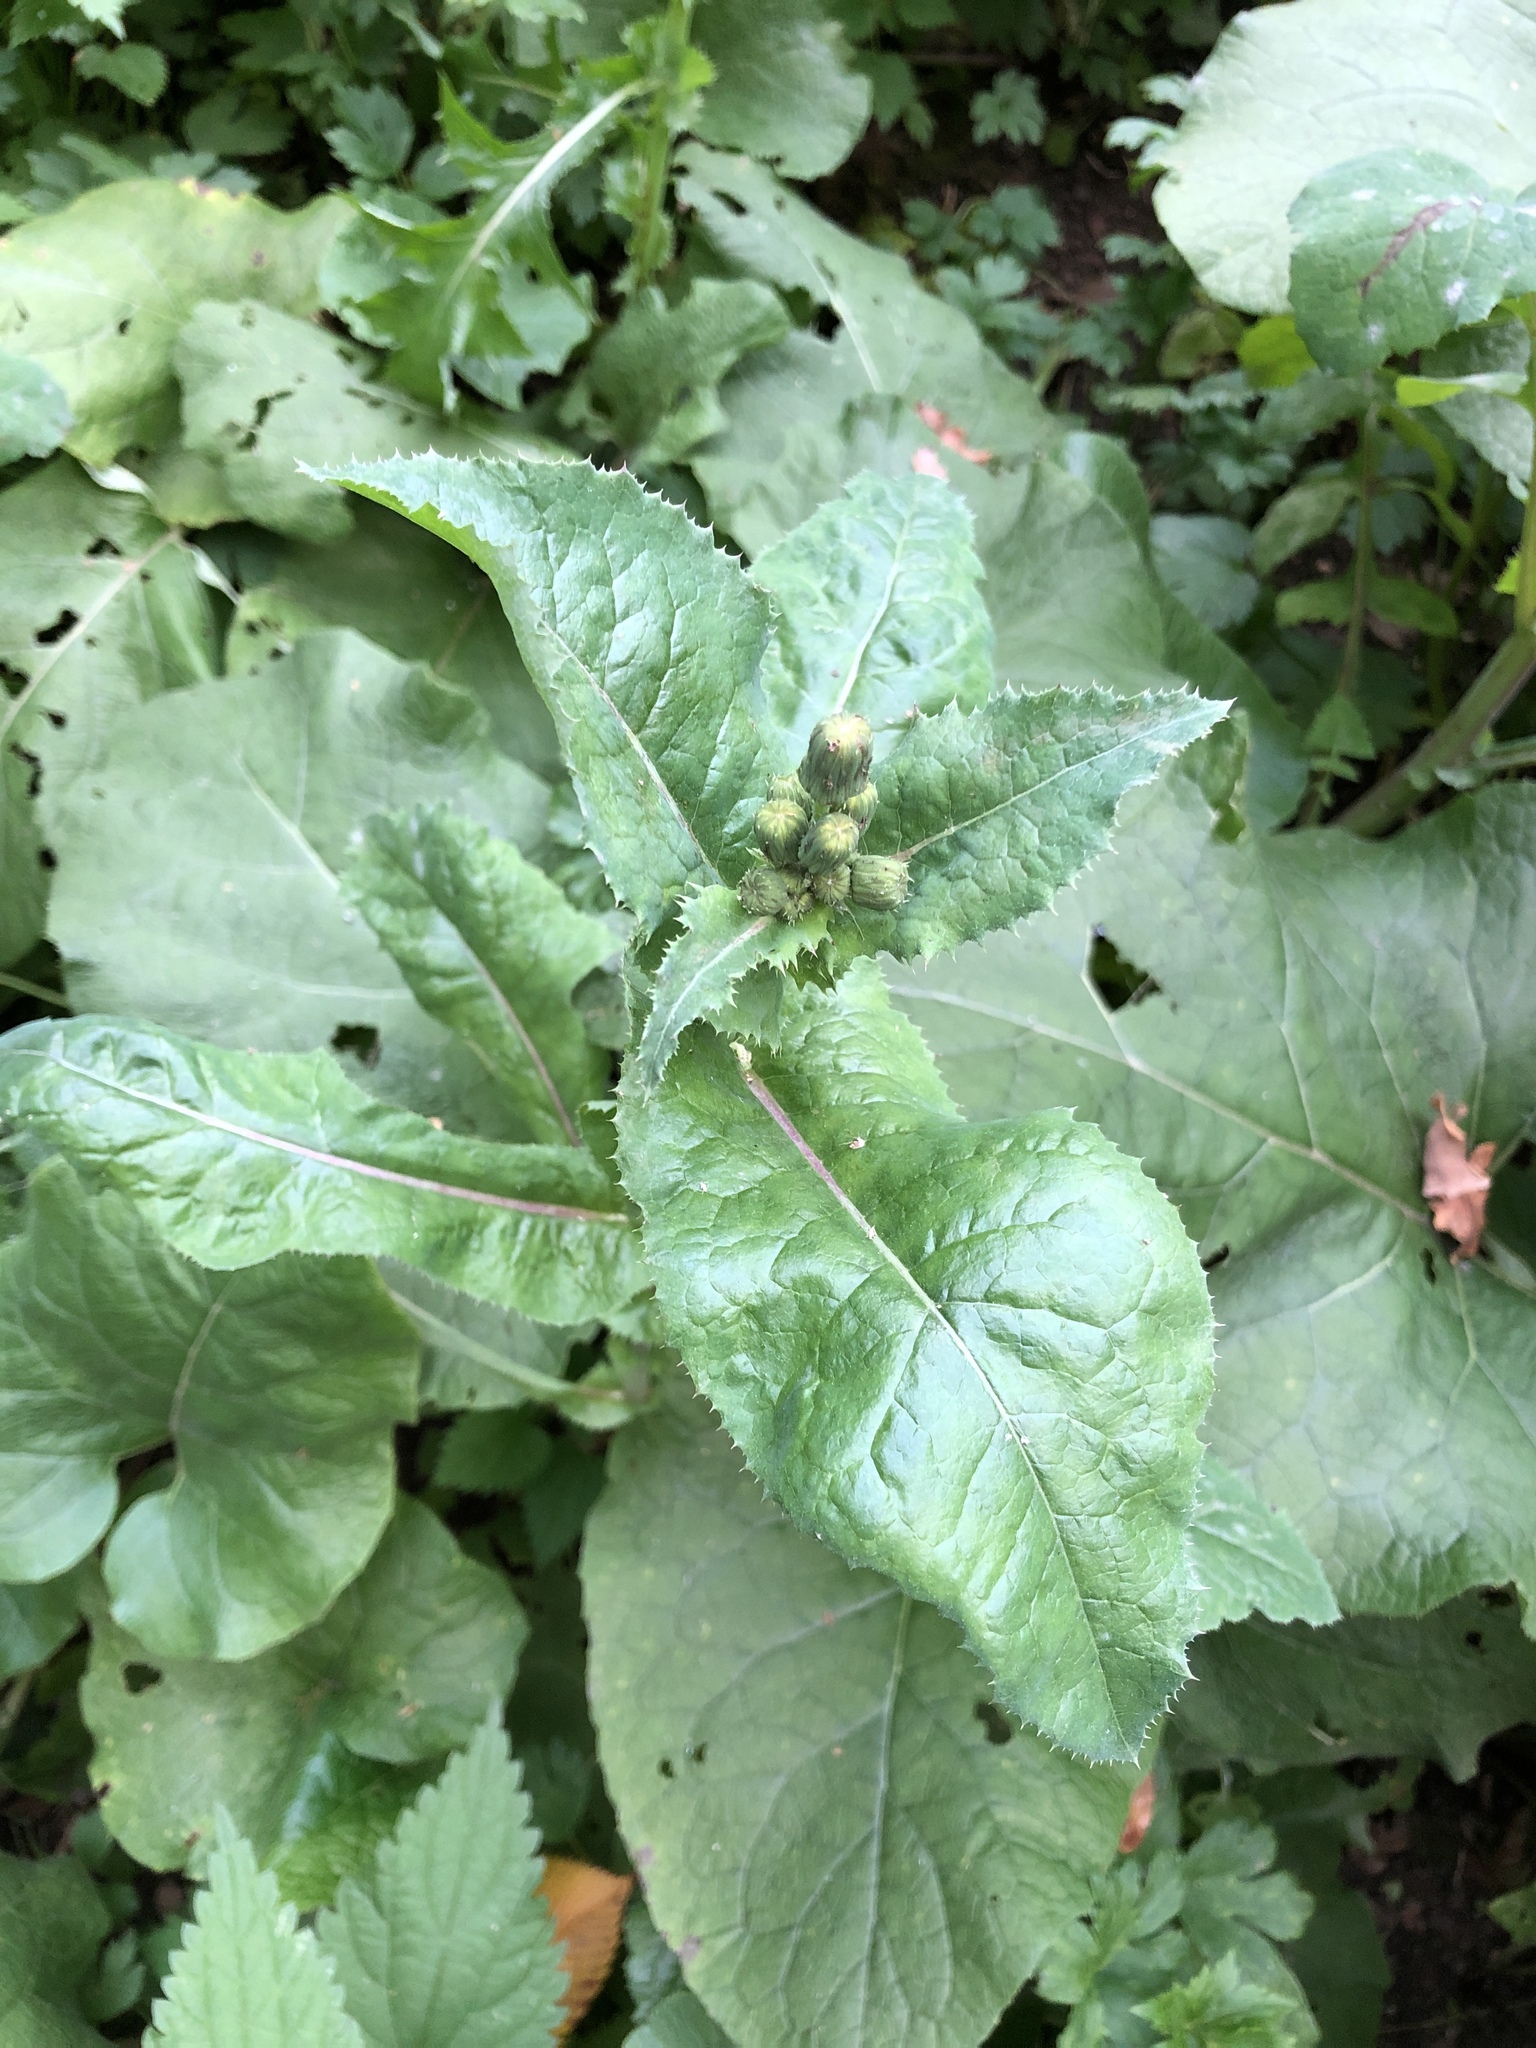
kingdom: Plantae
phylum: Tracheophyta
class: Magnoliopsida
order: Asterales
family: Asteraceae
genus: Sonchus
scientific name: Sonchus asper
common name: Prickly sow-thistle
